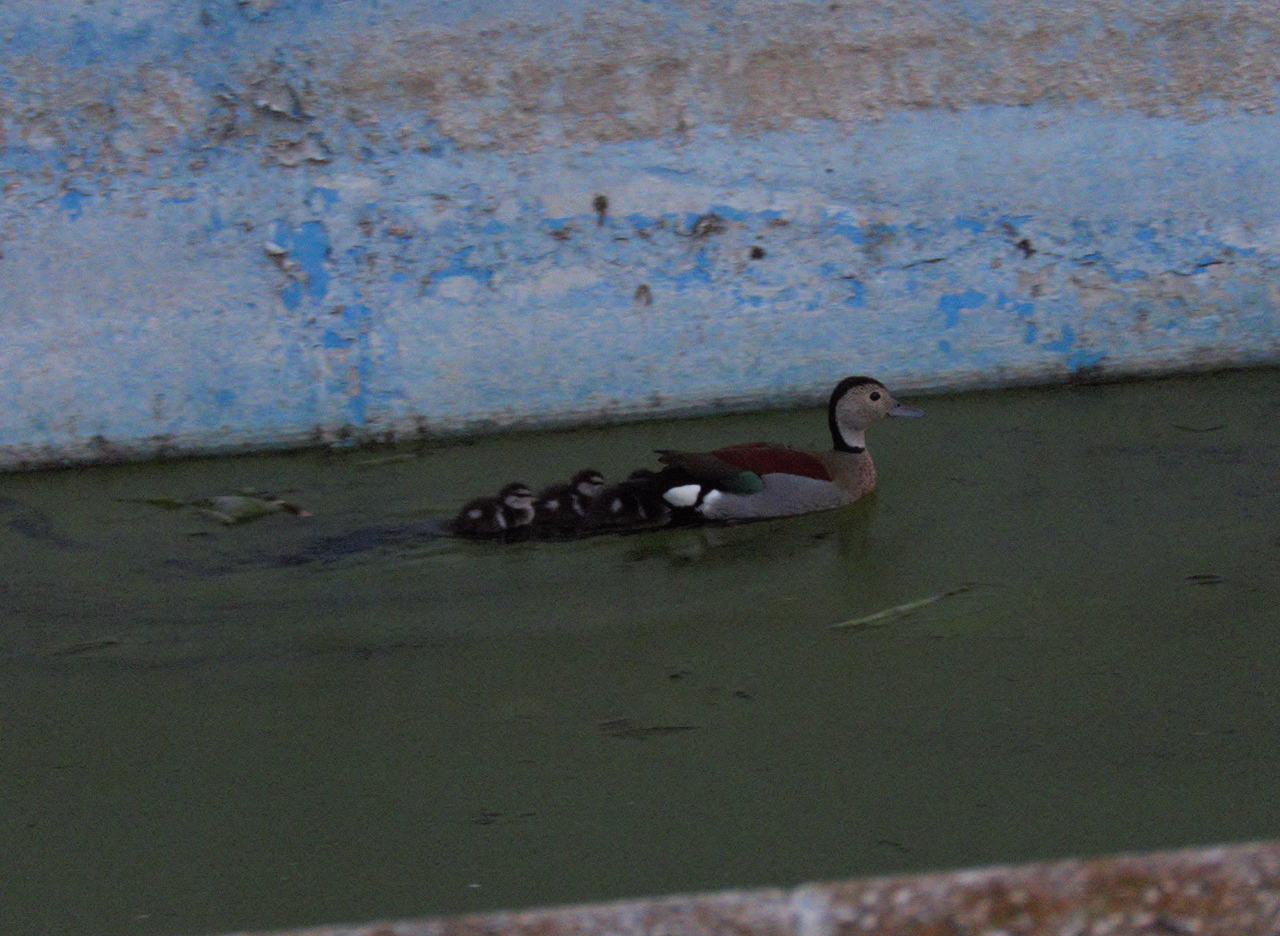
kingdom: Animalia
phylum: Chordata
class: Aves
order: Anseriformes
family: Anatidae
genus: Callonetta
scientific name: Callonetta leucophrys
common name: Ringed teal
